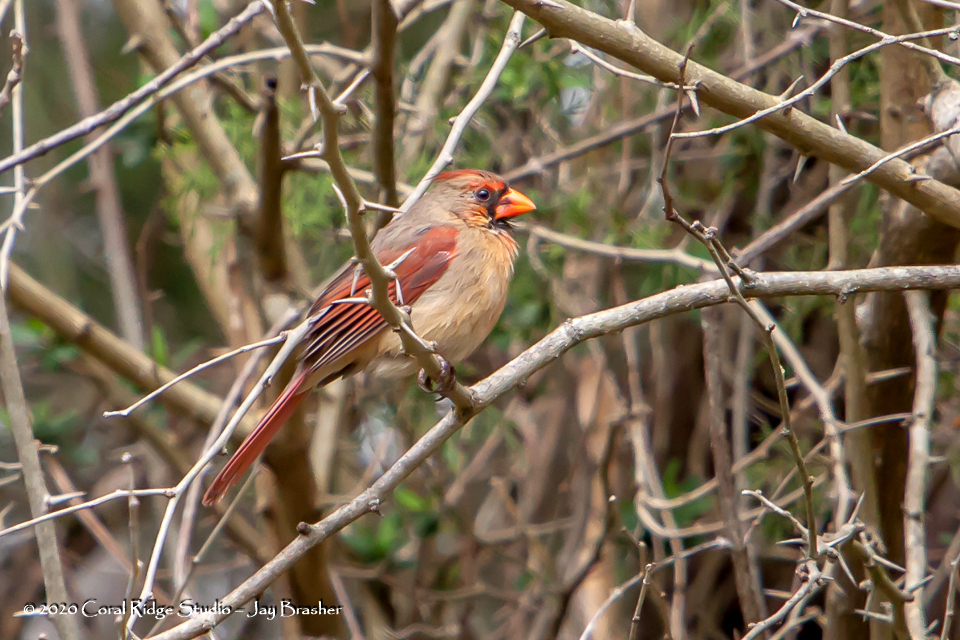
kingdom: Animalia
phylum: Chordata
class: Aves
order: Passeriformes
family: Cardinalidae
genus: Cardinalis
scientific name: Cardinalis cardinalis
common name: Northern cardinal
